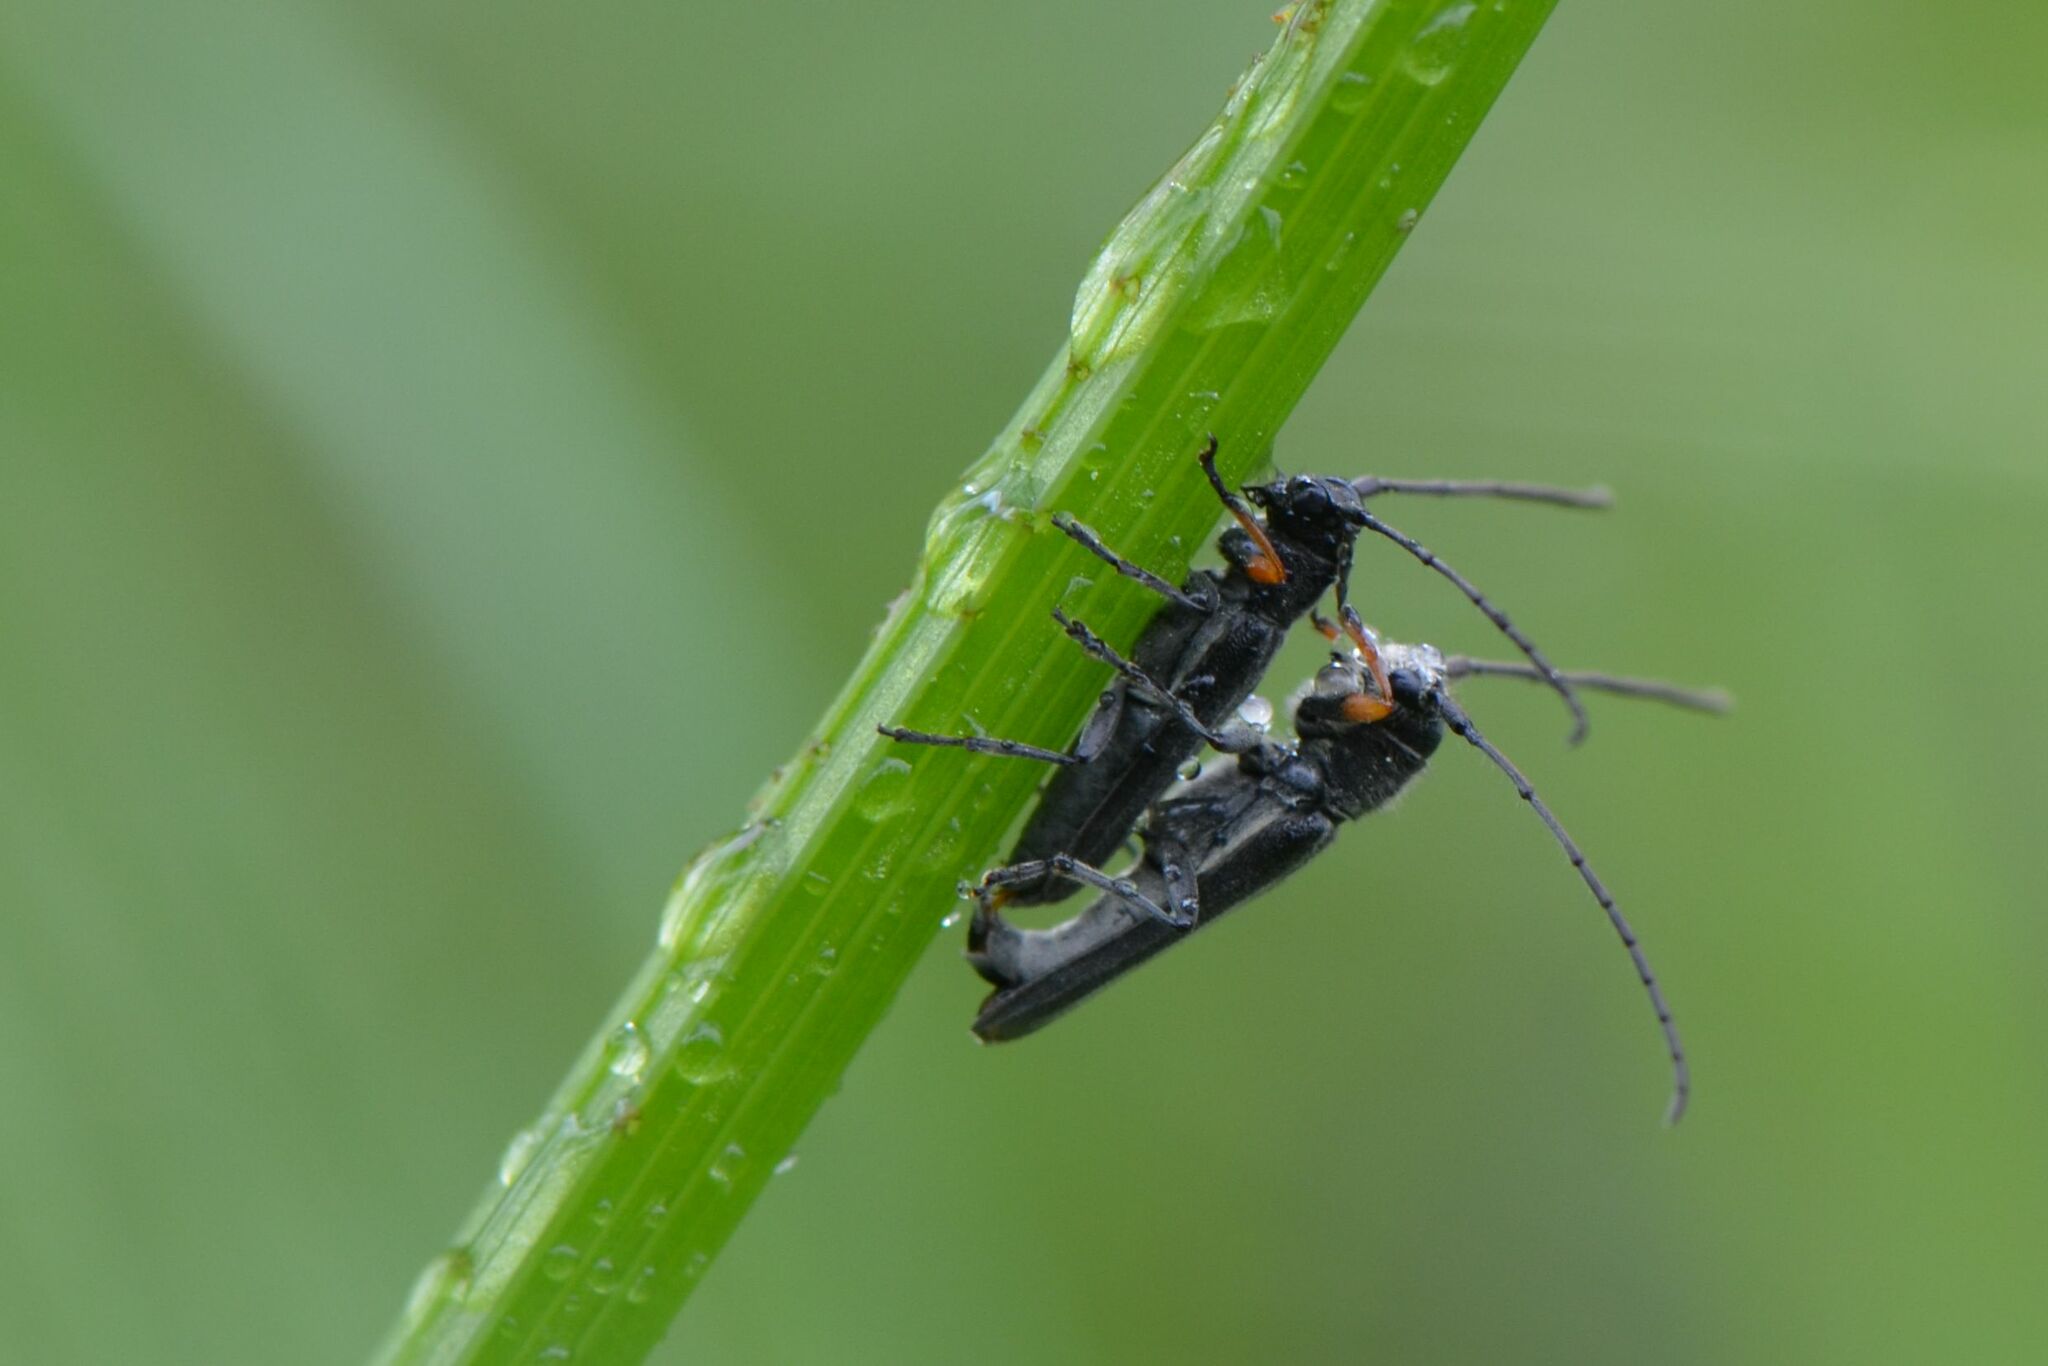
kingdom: Animalia
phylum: Arthropoda
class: Insecta
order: Coleoptera
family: Cerambycidae
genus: Phytoecia
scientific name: Phytoecia cylindrica
